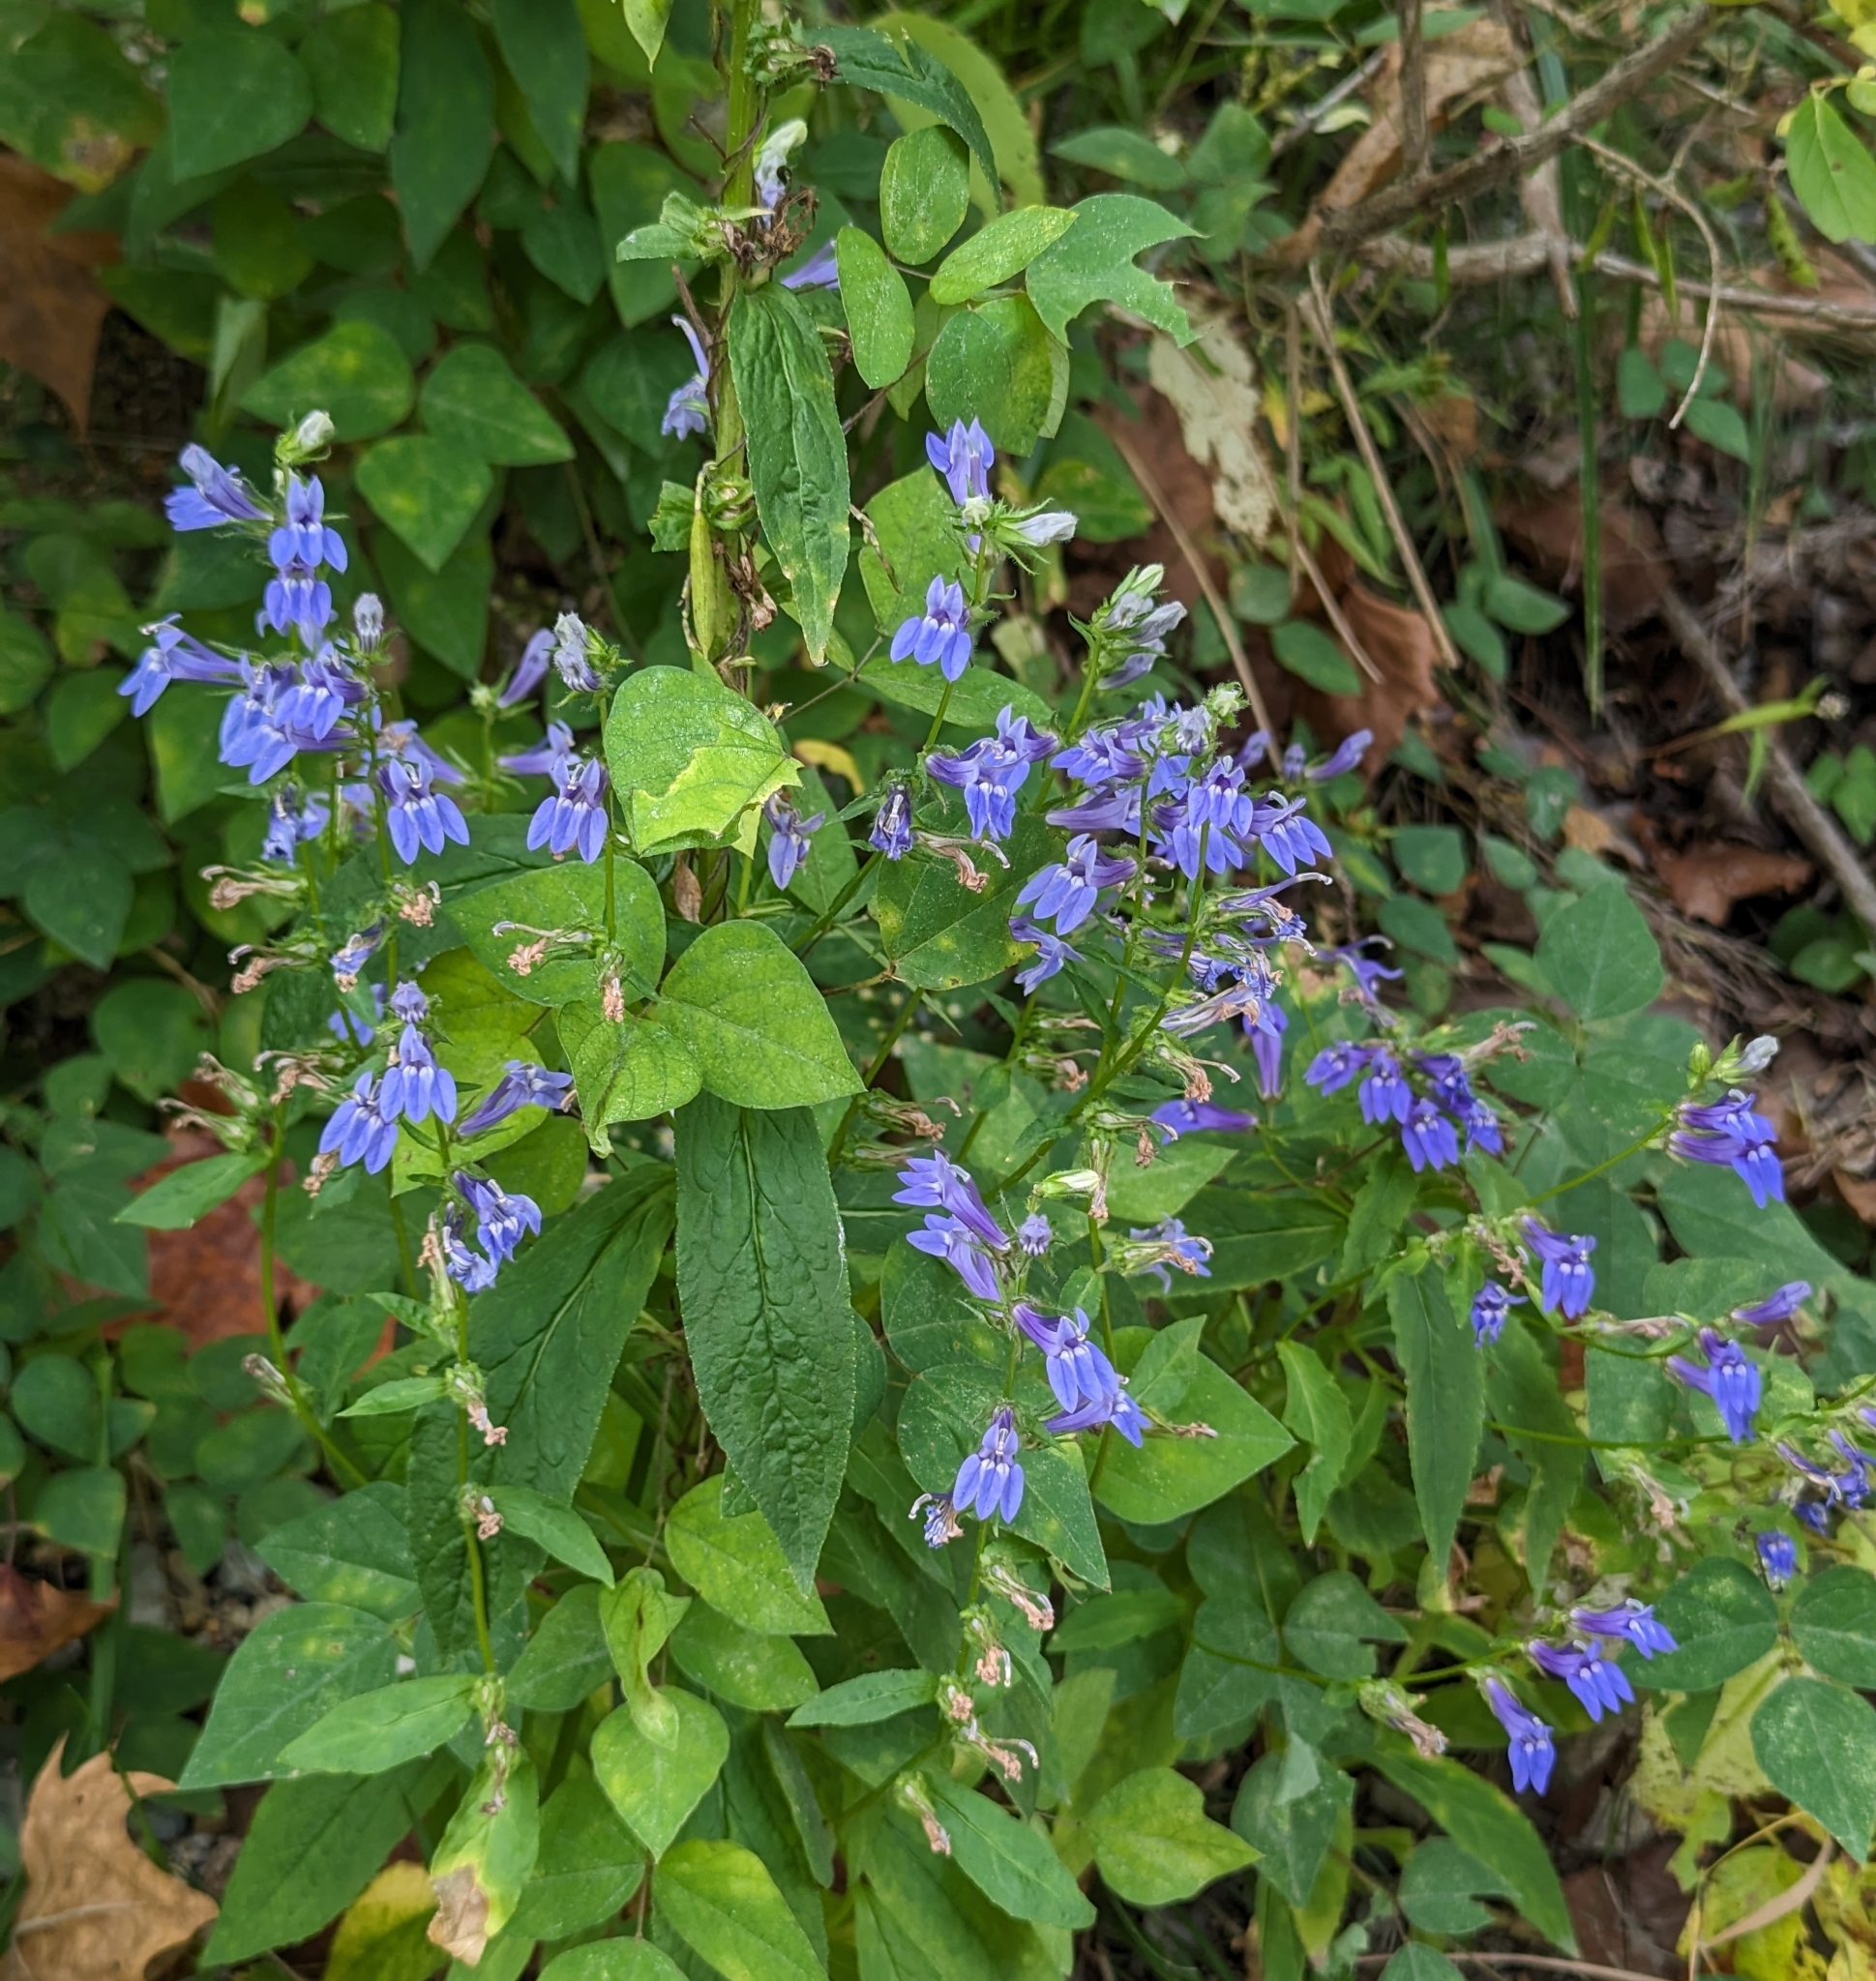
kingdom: Plantae
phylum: Tracheophyta
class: Magnoliopsida
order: Asterales
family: Campanulaceae
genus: Lobelia
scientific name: Lobelia siphilitica
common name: Great lobelia
